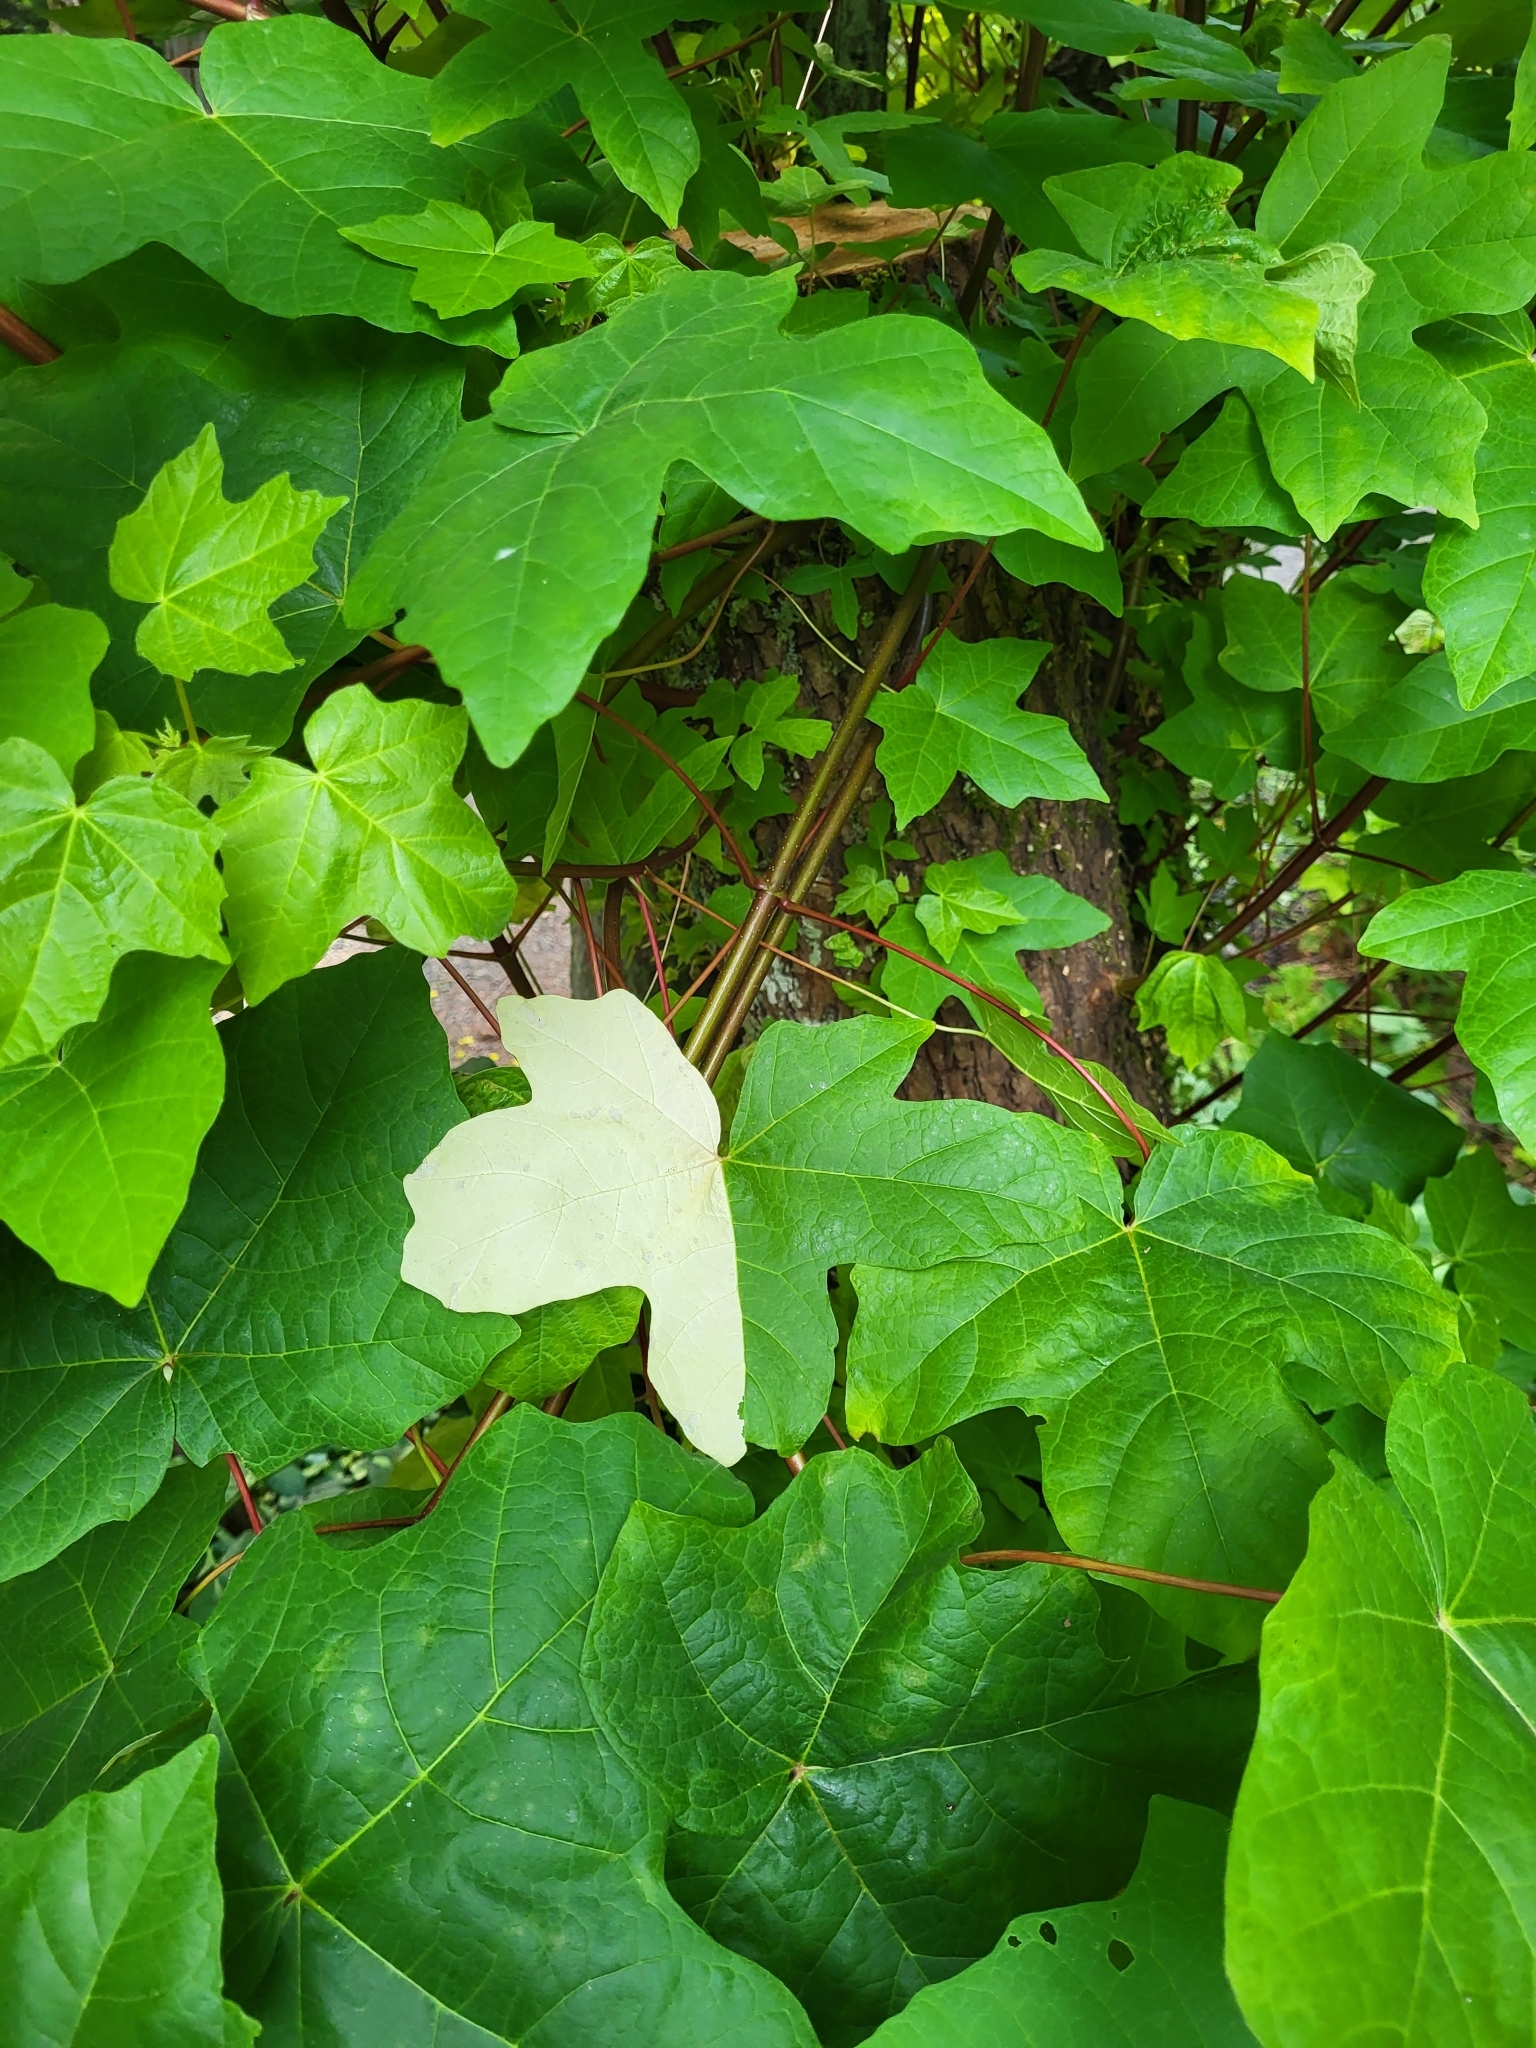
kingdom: Plantae
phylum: Tracheophyta
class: Magnoliopsida
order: Sapindales
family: Sapindaceae
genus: Acer
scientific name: Acer macrophyllum
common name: Oregon maple
